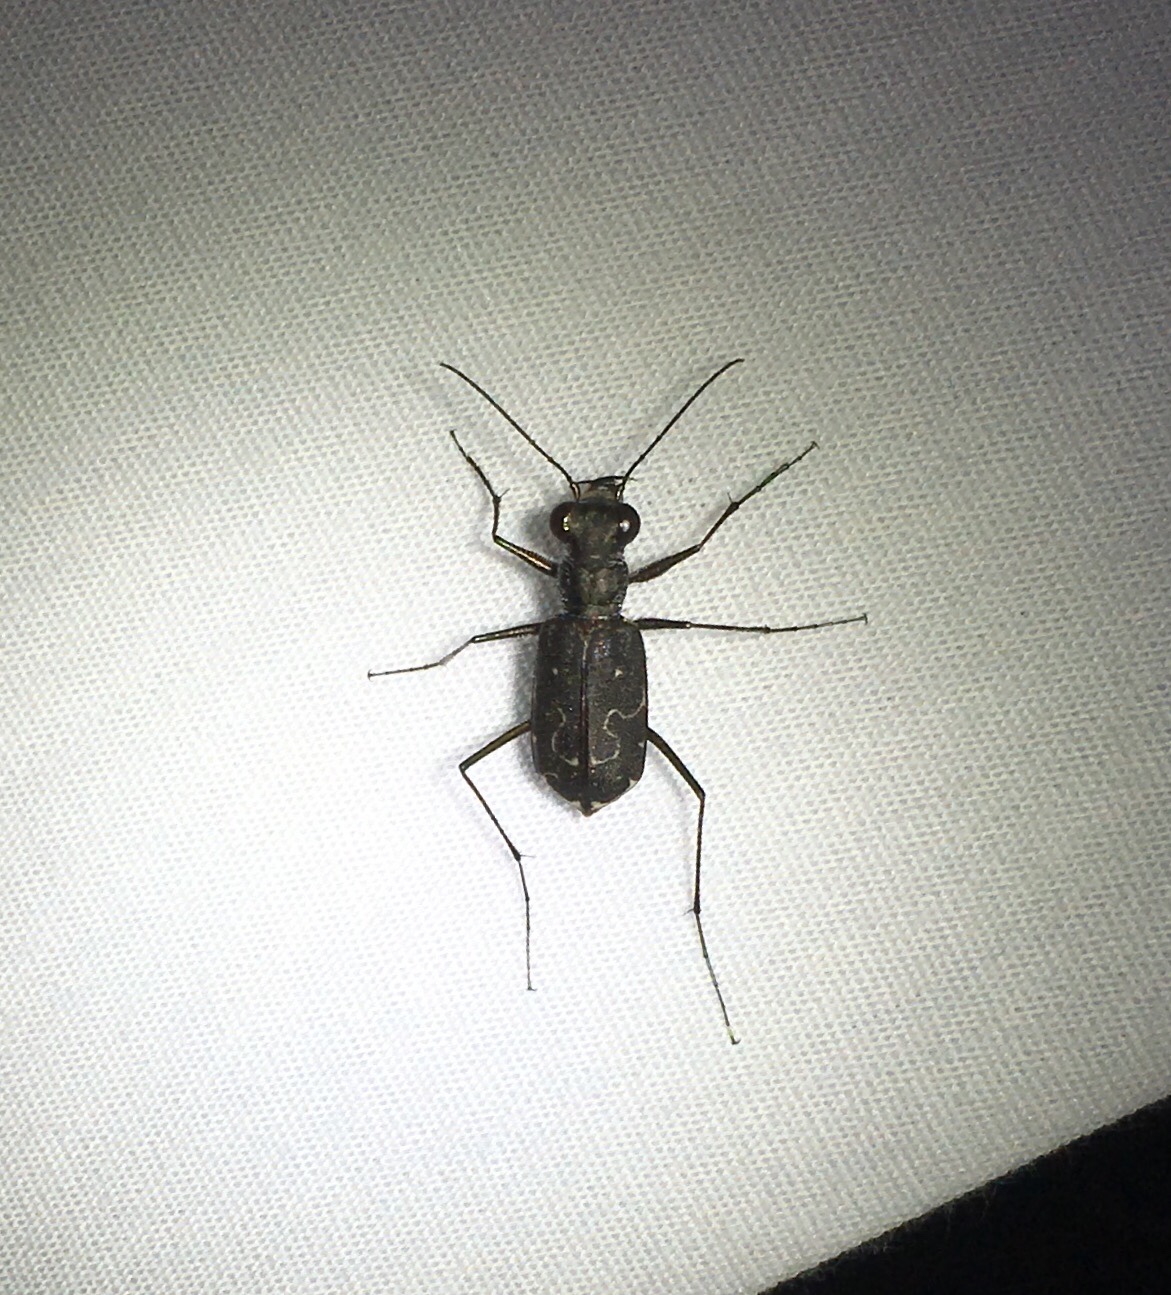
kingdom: Animalia
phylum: Arthropoda
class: Insecta
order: Coleoptera
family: Carabidae
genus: Cicindela
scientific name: Cicindela trifasciata
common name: Mudflat tiger beetle
